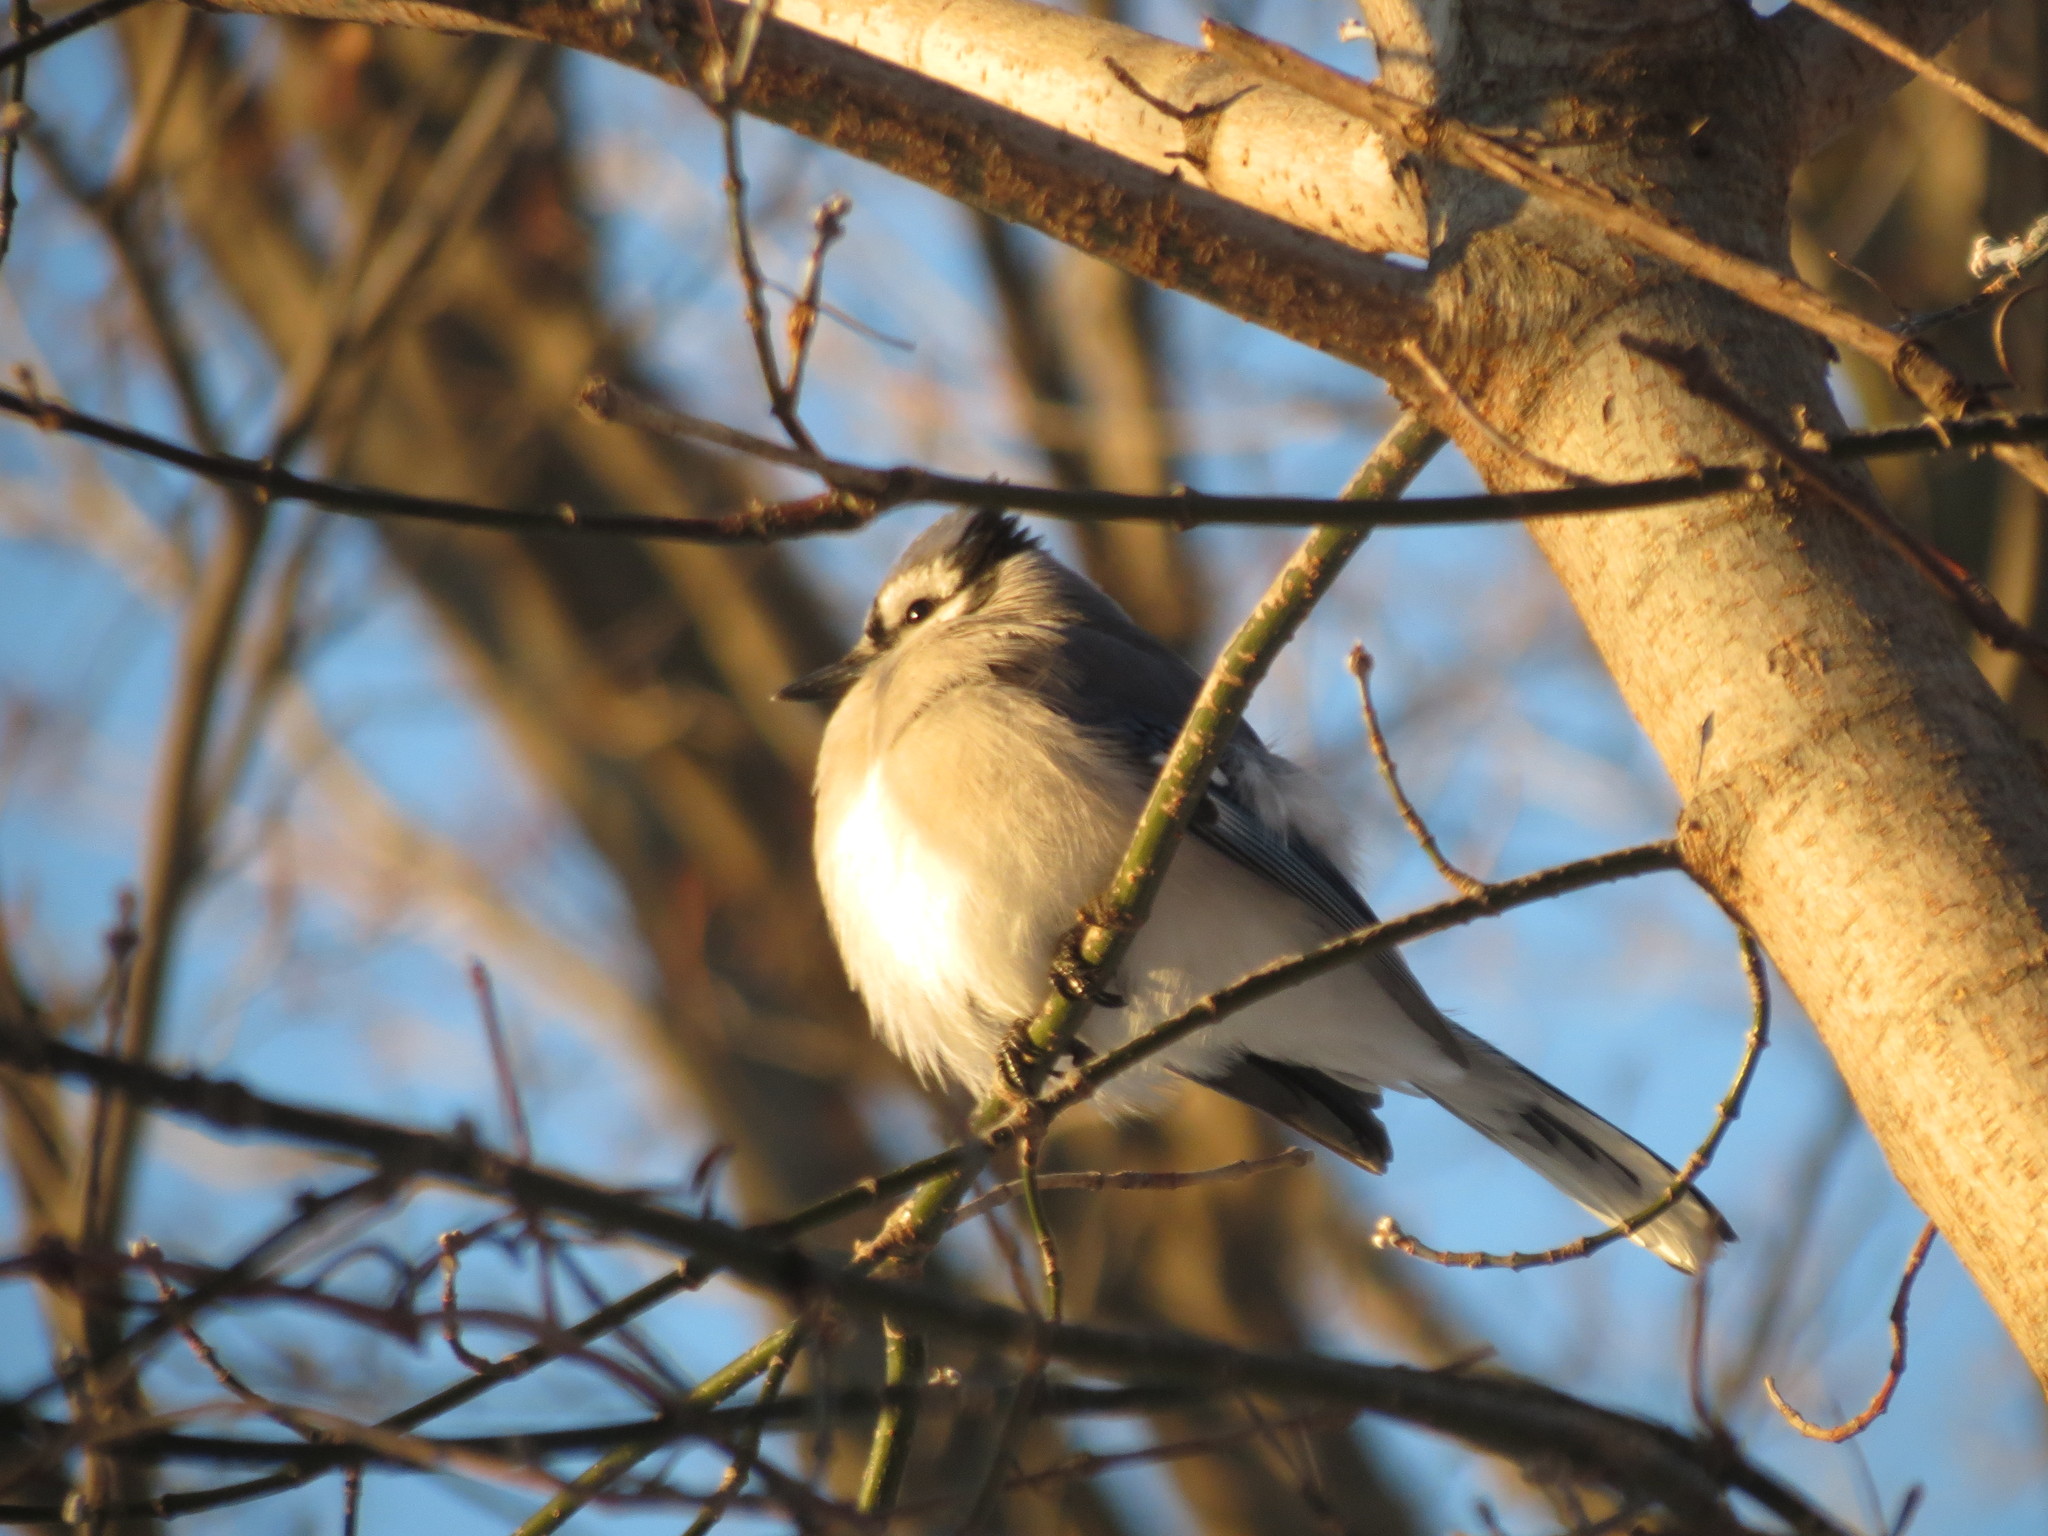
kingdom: Animalia
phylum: Chordata
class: Aves
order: Passeriformes
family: Corvidae
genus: Cyanocitta
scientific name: Cyanocitta cristata
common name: Blue jay
